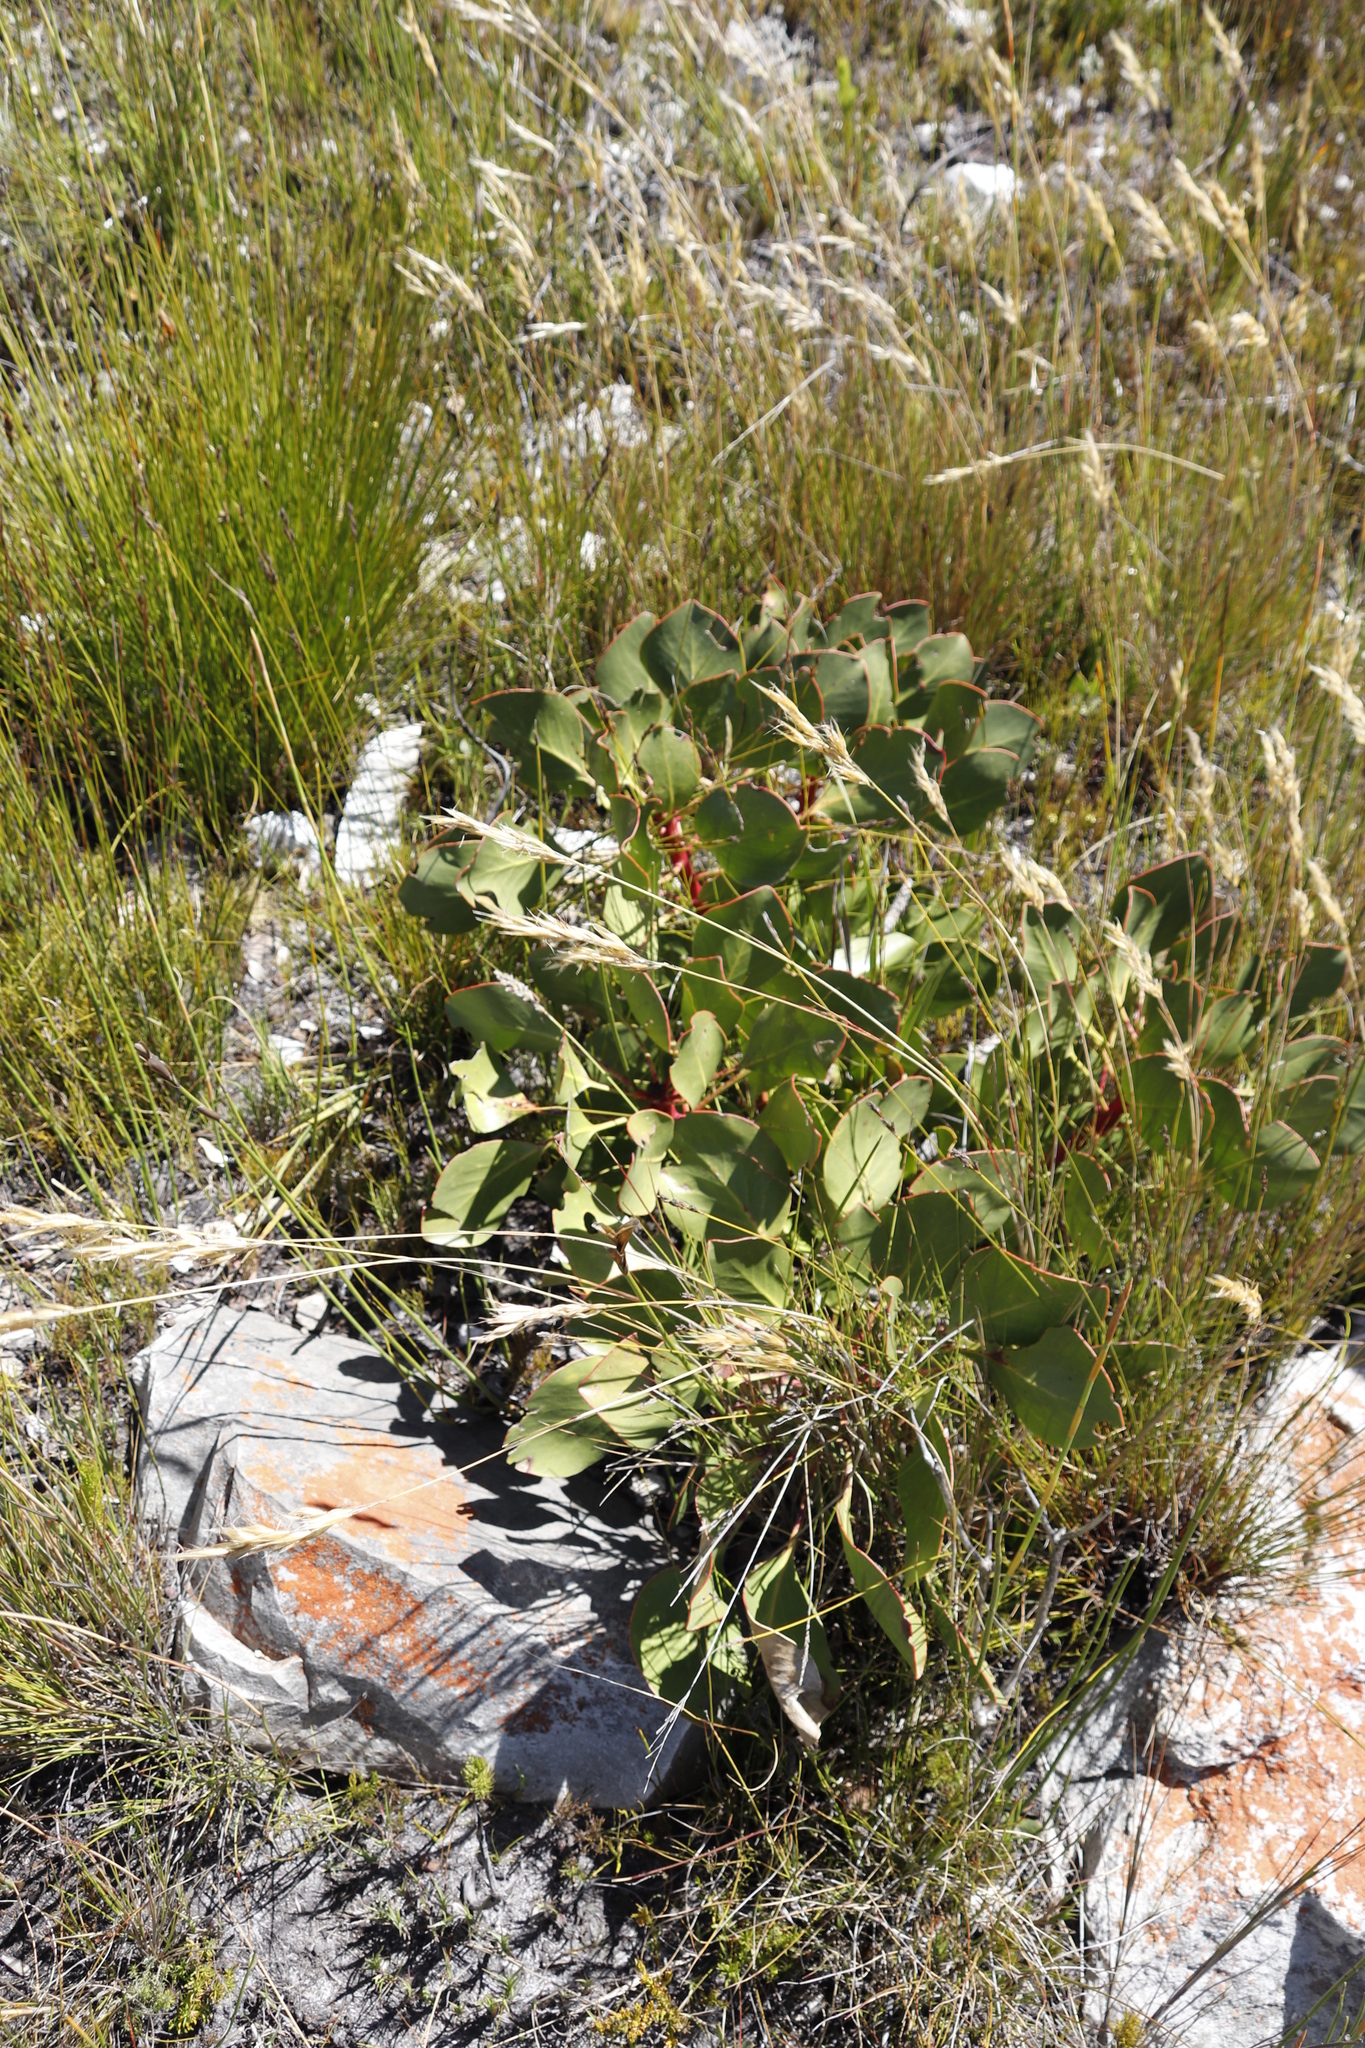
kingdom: Plantae
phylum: Tracheophyta
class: Magnoliopsida
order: Proteales
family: Proteaceae
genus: Protea
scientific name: Protea cynaroides
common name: King protea
